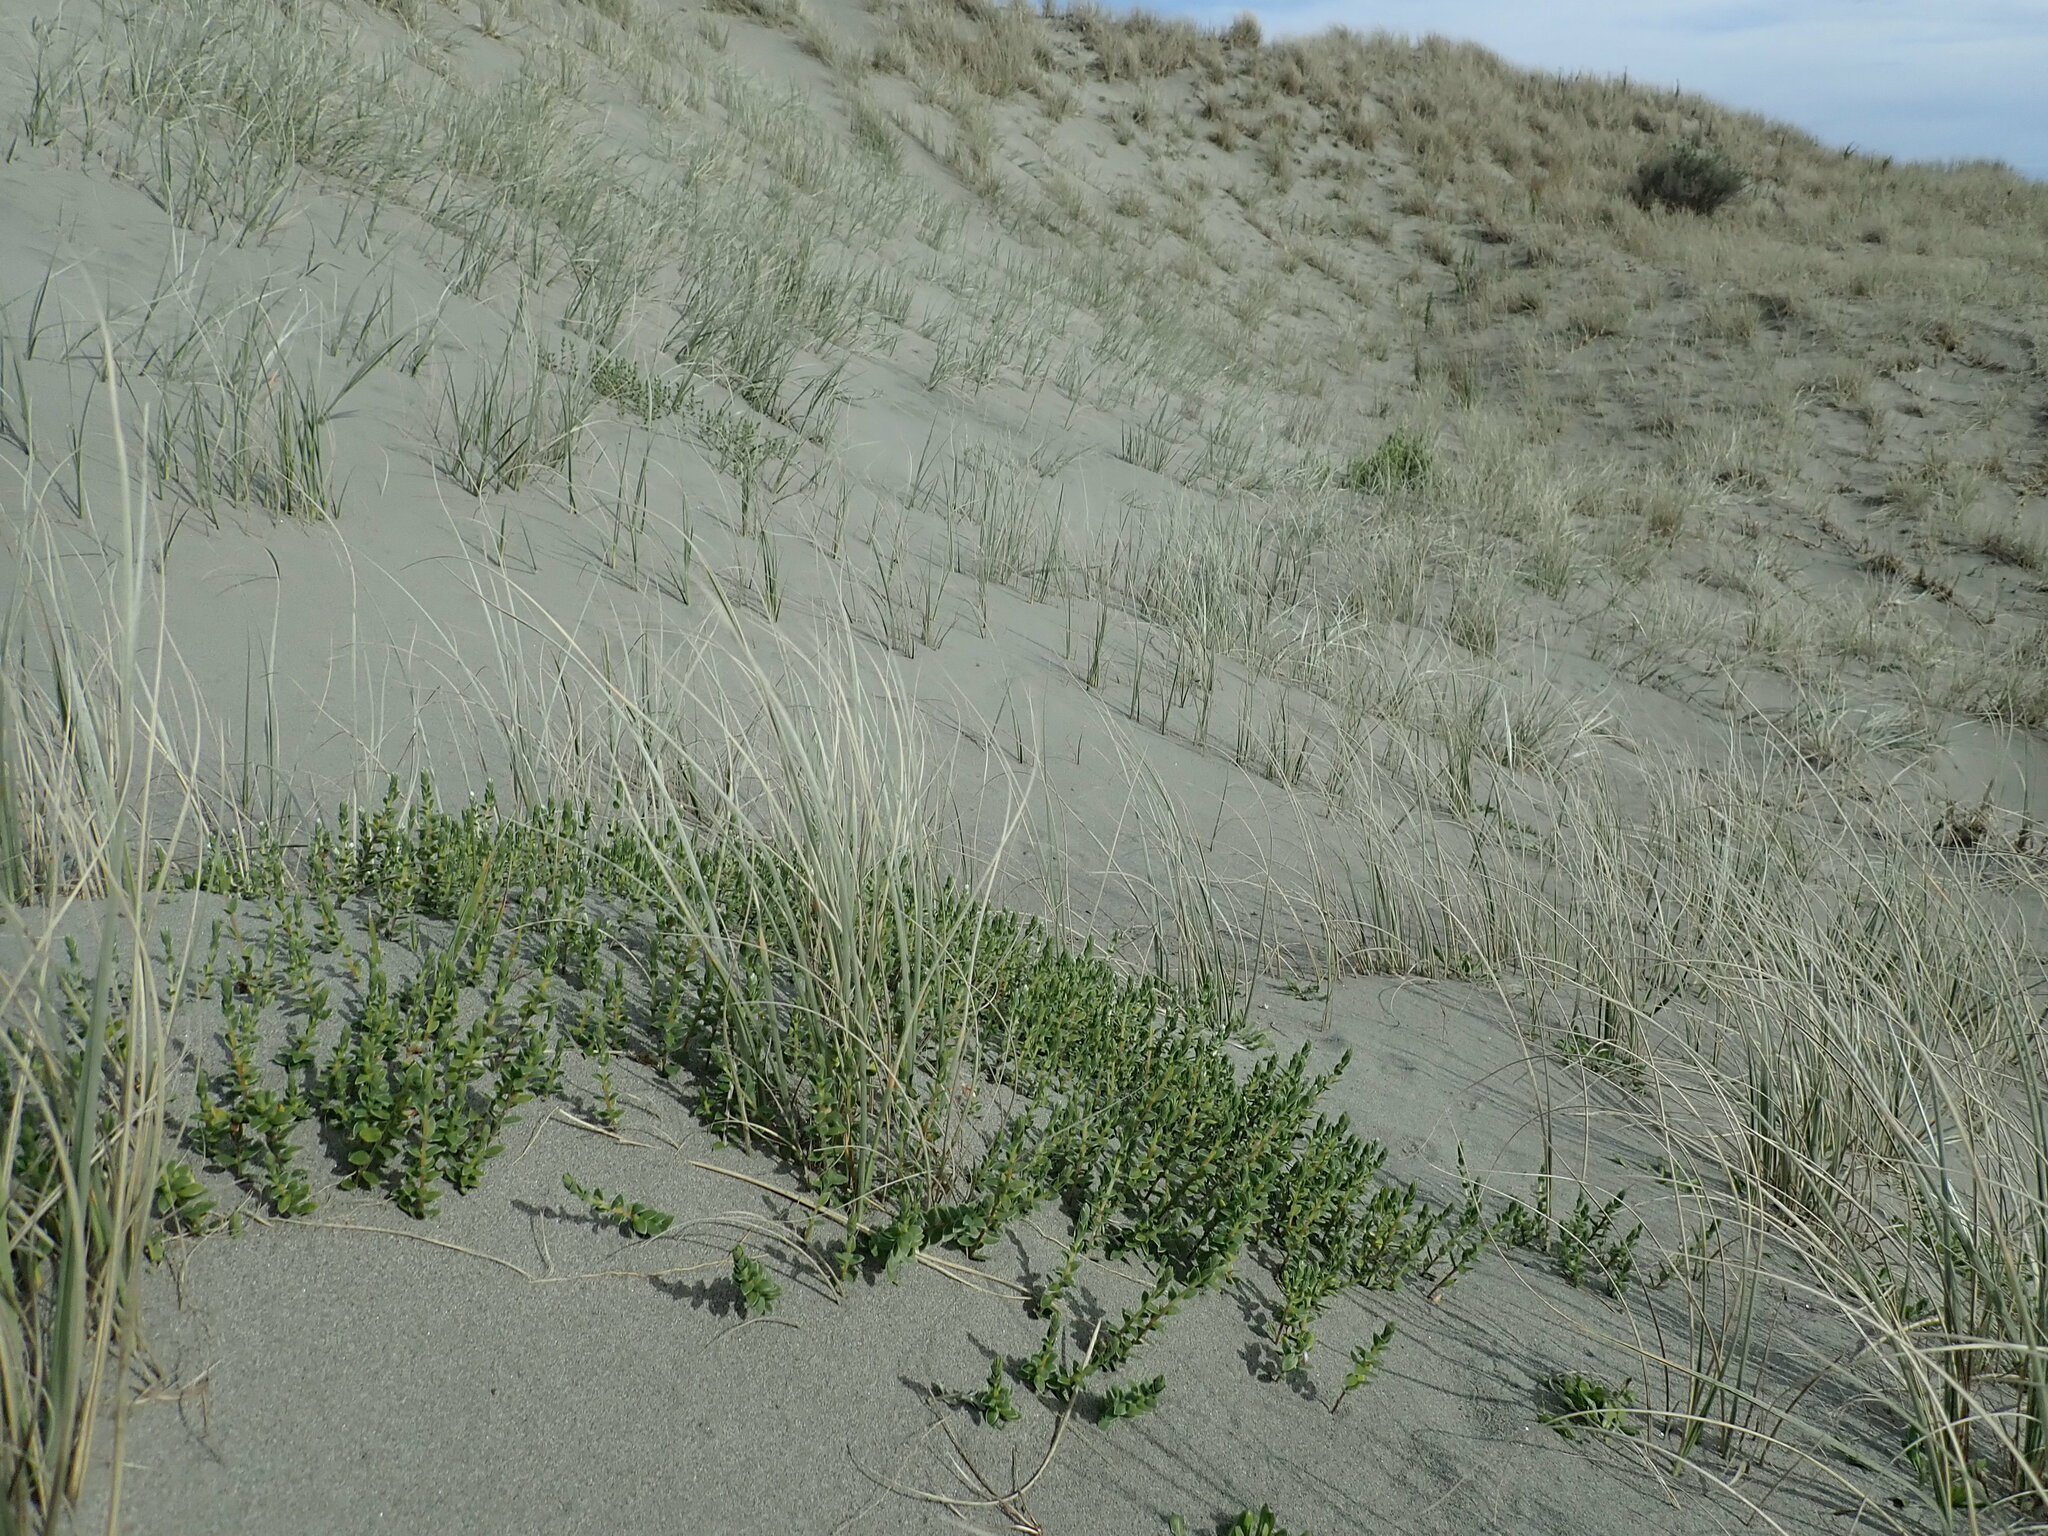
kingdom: Plantae
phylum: Tracheophyta
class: Magnoliopsida
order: Malvales
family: Thymelaeaceae
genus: Pimelea
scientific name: Pimelea villosa
